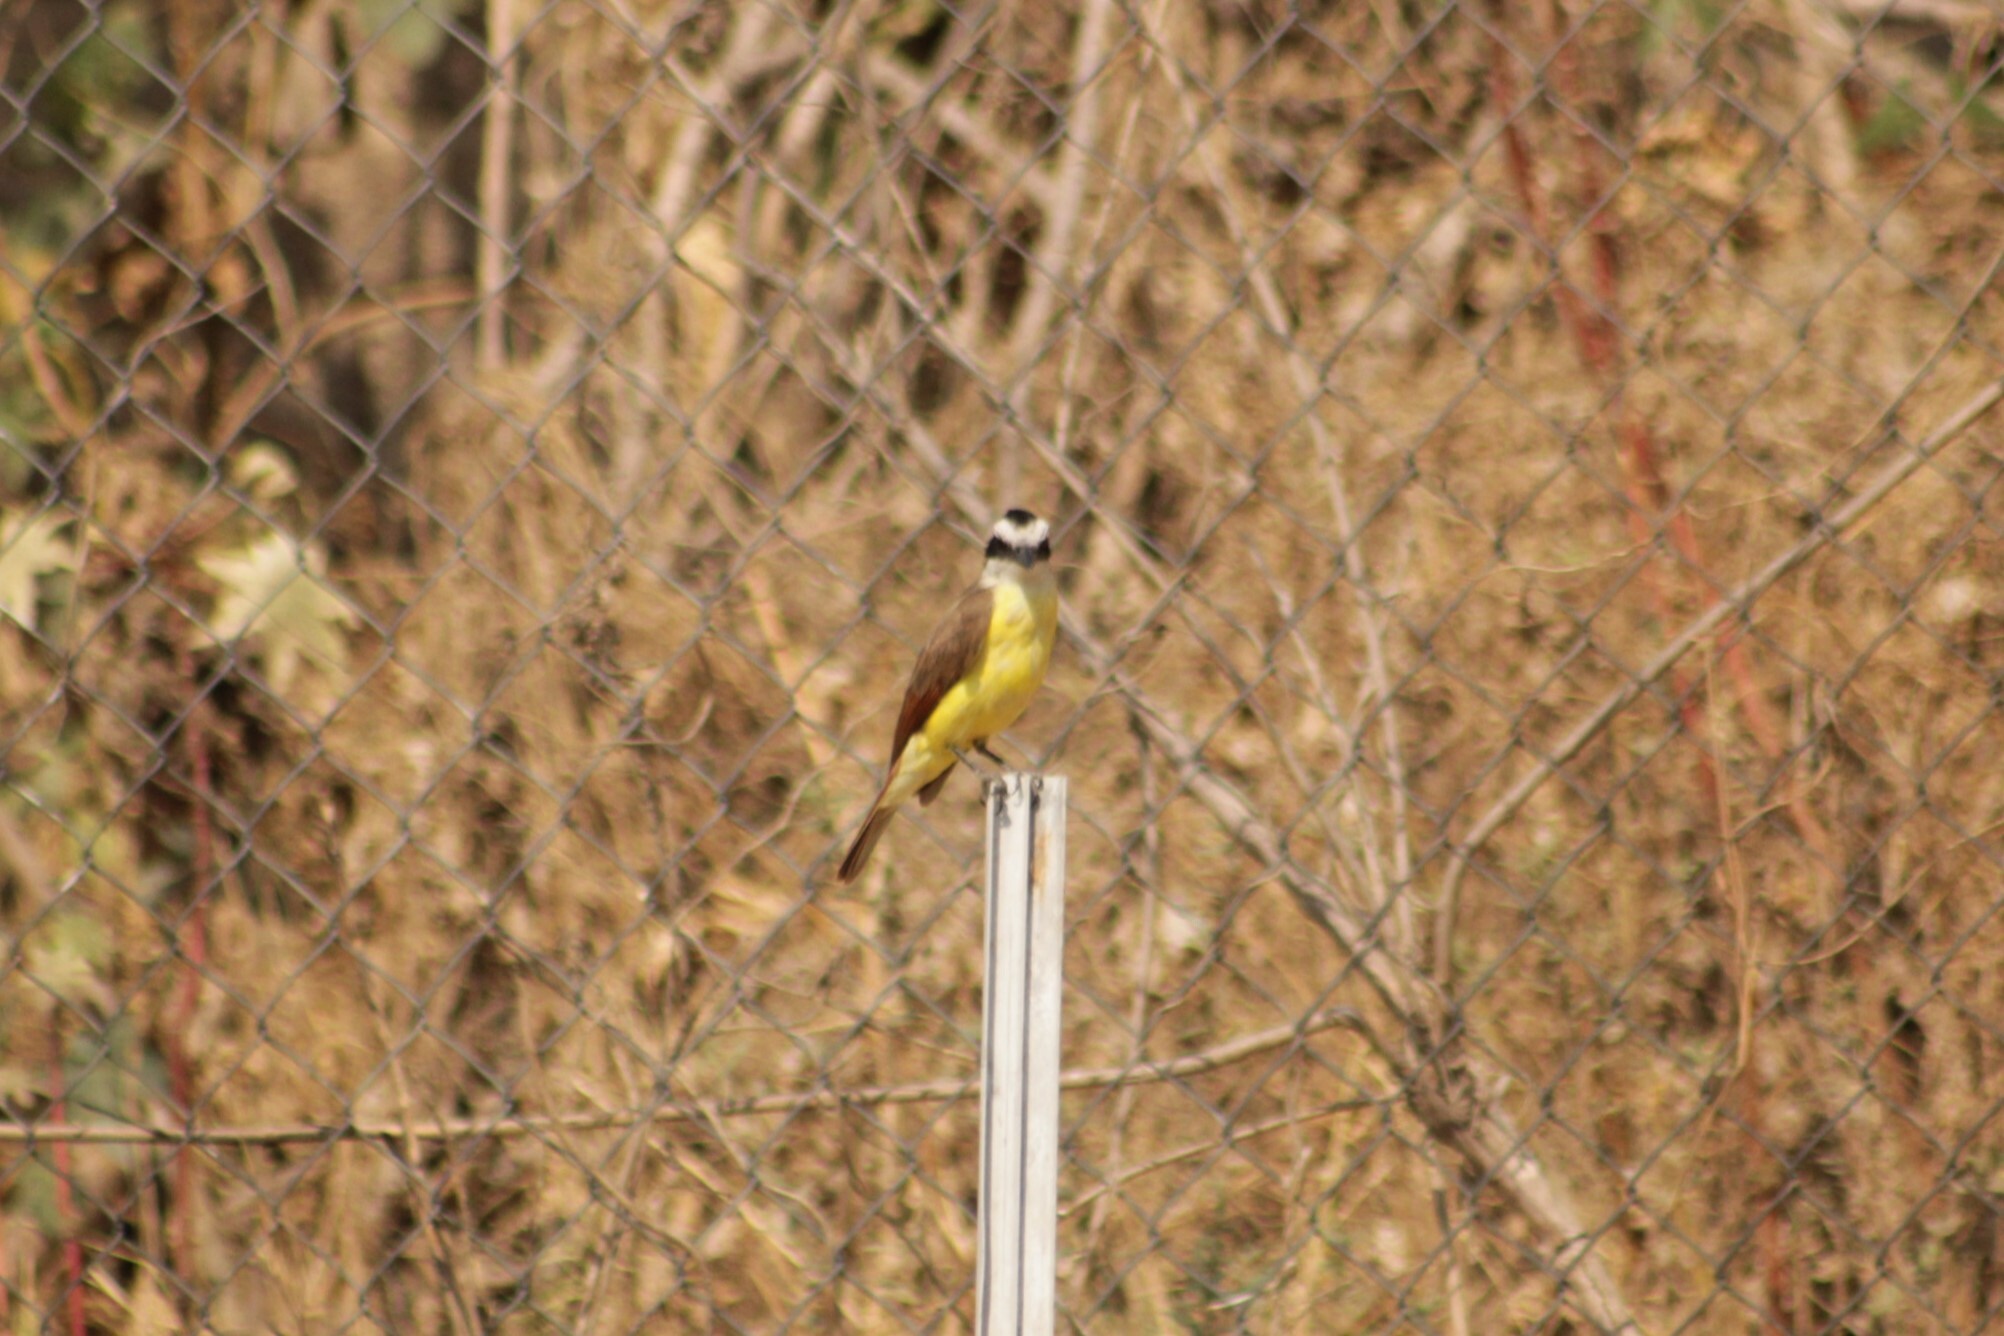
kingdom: Animalia
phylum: Chordata
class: Aves
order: Passeriformes
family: Tyrannidae
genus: Pitangus
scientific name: Pitangus sulphuratus
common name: Great kiskadee
